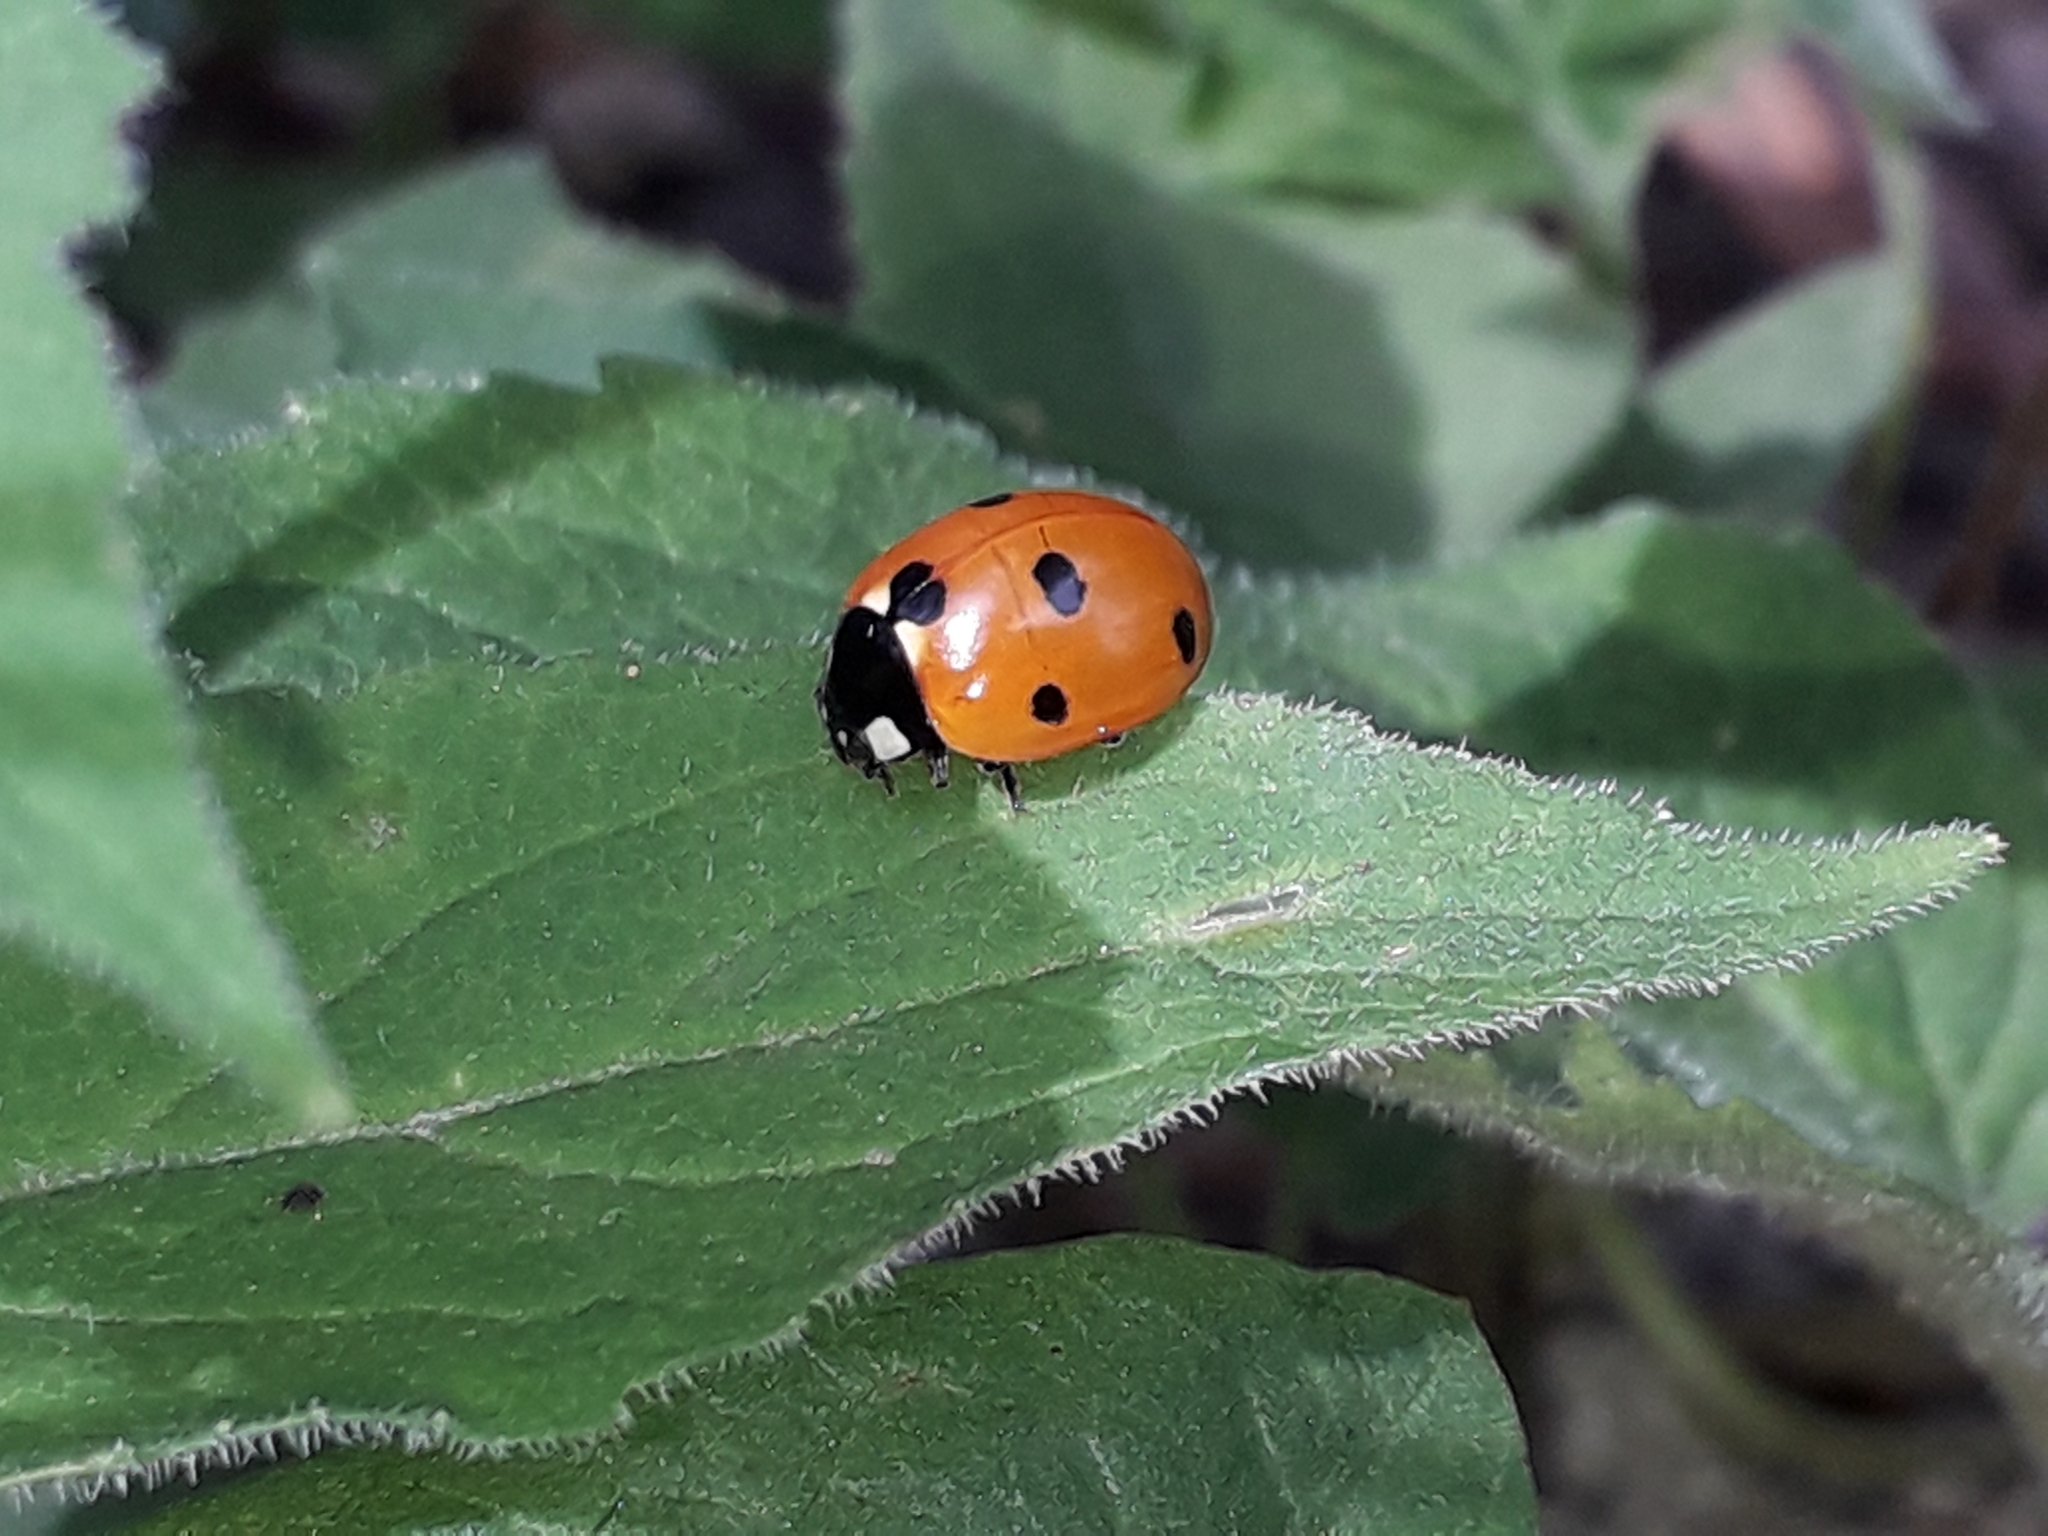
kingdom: Animalia
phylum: Arthropoda
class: Insecta
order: Coleoptera
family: Coccinellidae
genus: Coccinella
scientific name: Coccinella septempunctata
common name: Sevenspotted lady beetle
